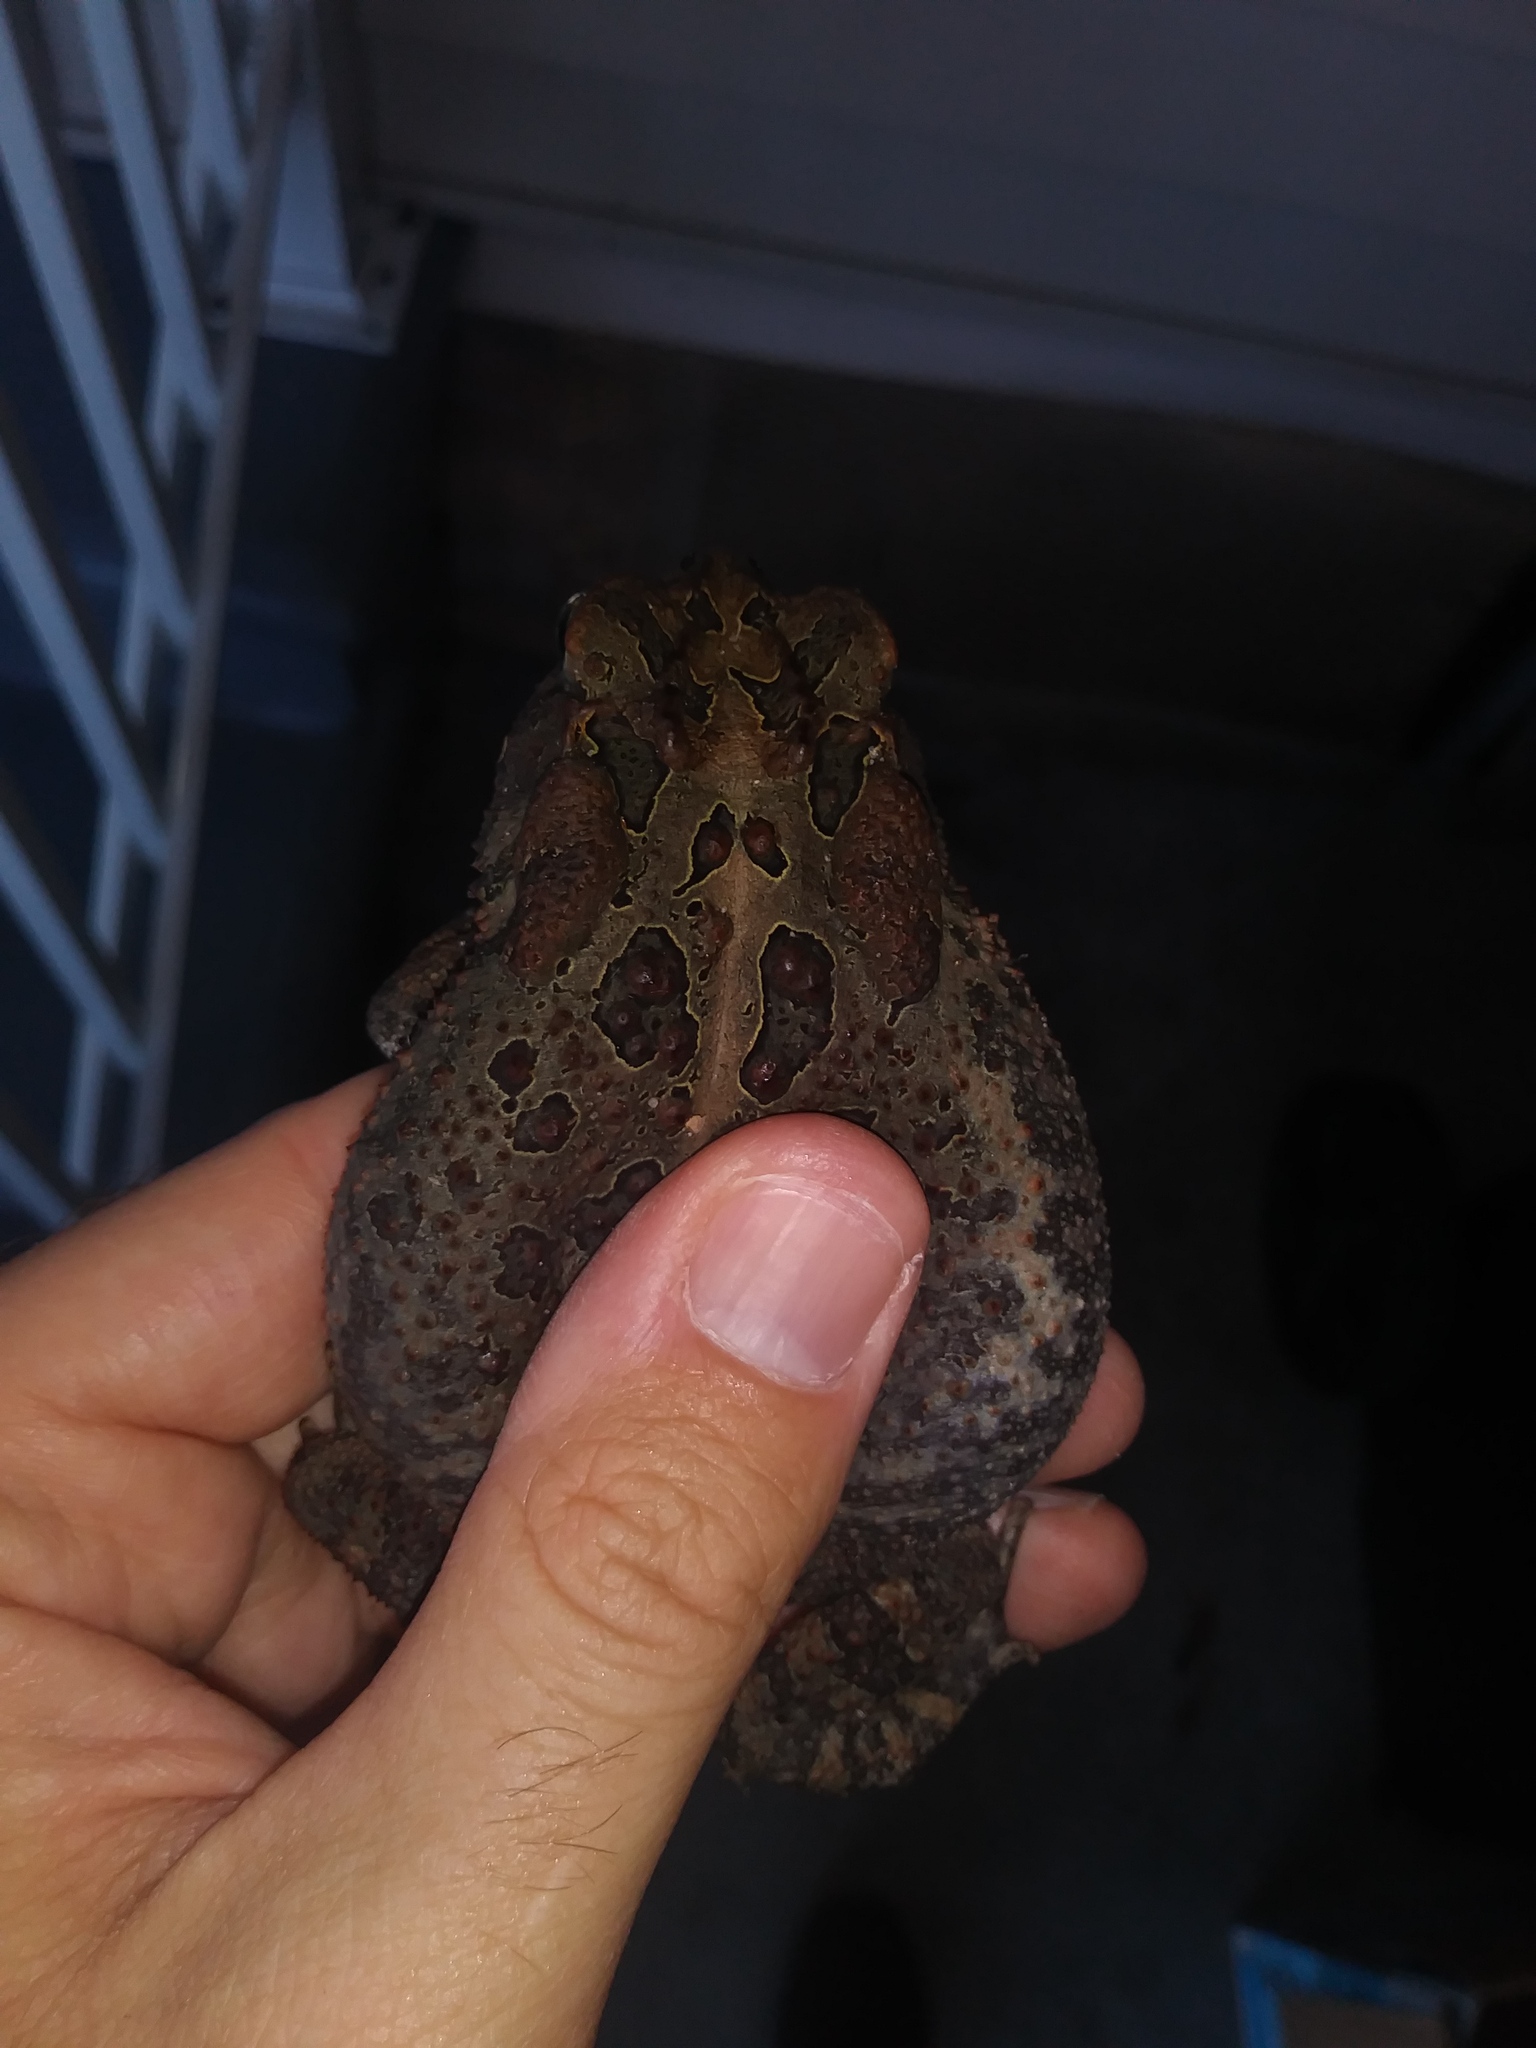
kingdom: Animalia
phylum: Chordata
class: Amphibia
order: Anura
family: Bufonidae
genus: Anaxyrus
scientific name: Anaxyrus terrestris
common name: Southern toad
